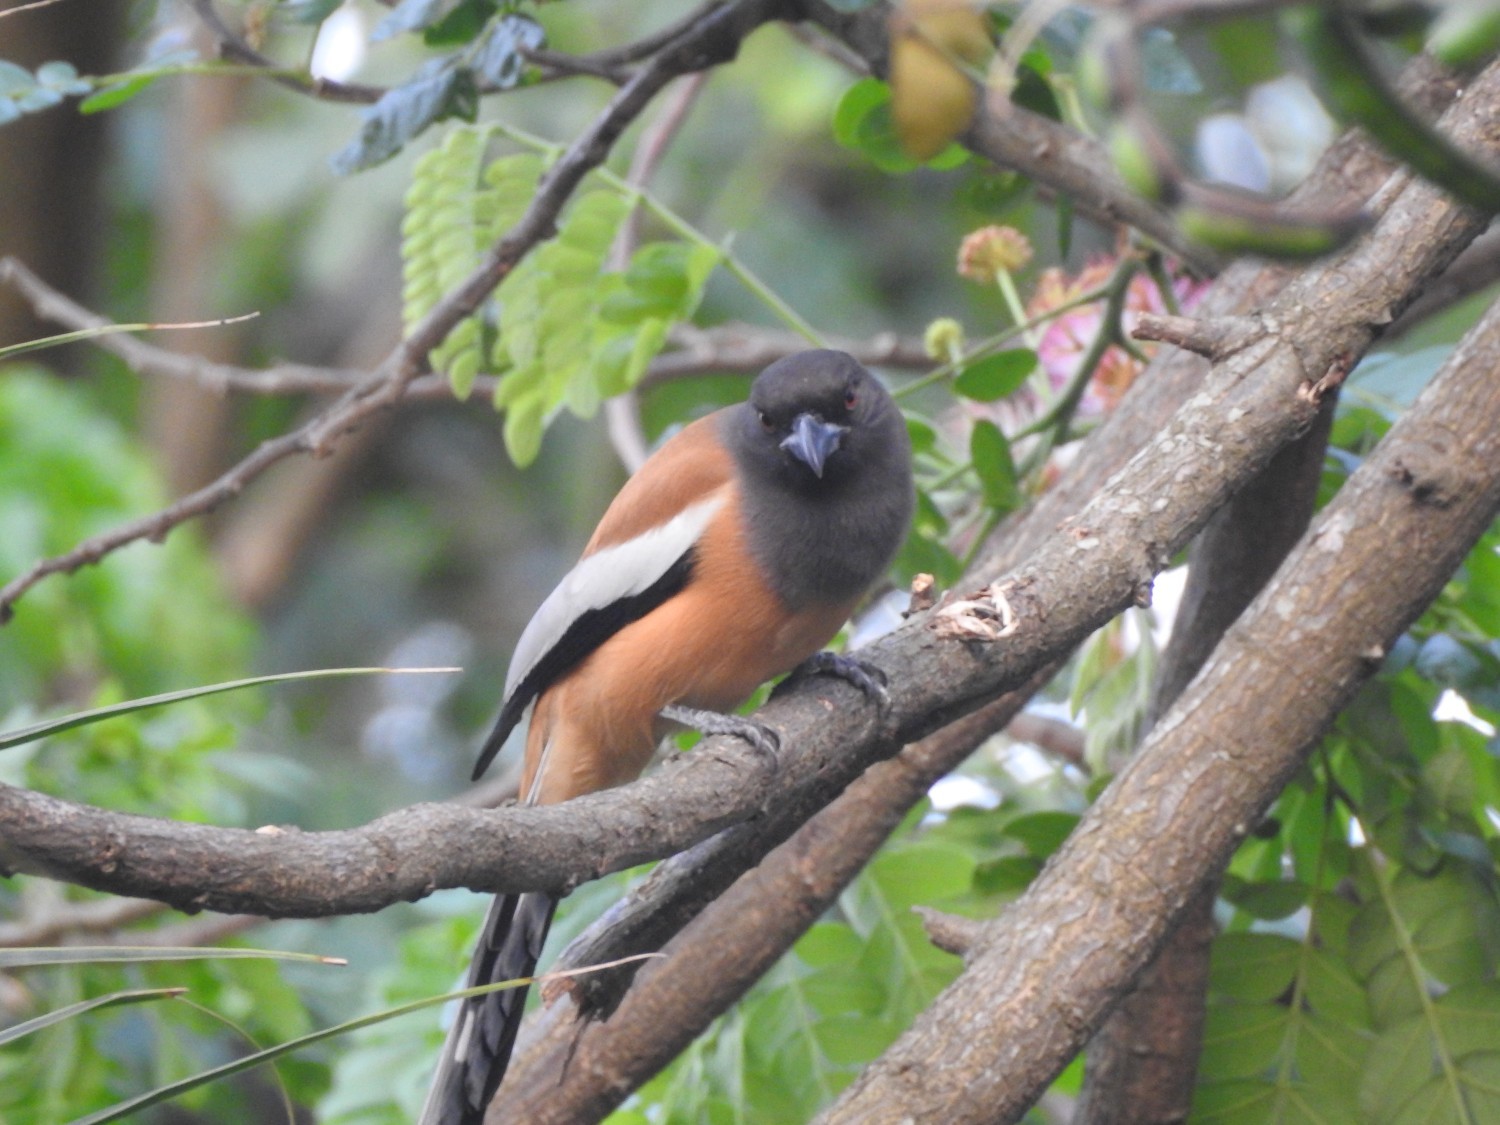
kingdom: Animalia
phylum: Chordata
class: Aves
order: Passeriformes
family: Corvidae
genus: Dendrocitta
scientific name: Dendrocitta vagabunda
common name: Rufous treepie
